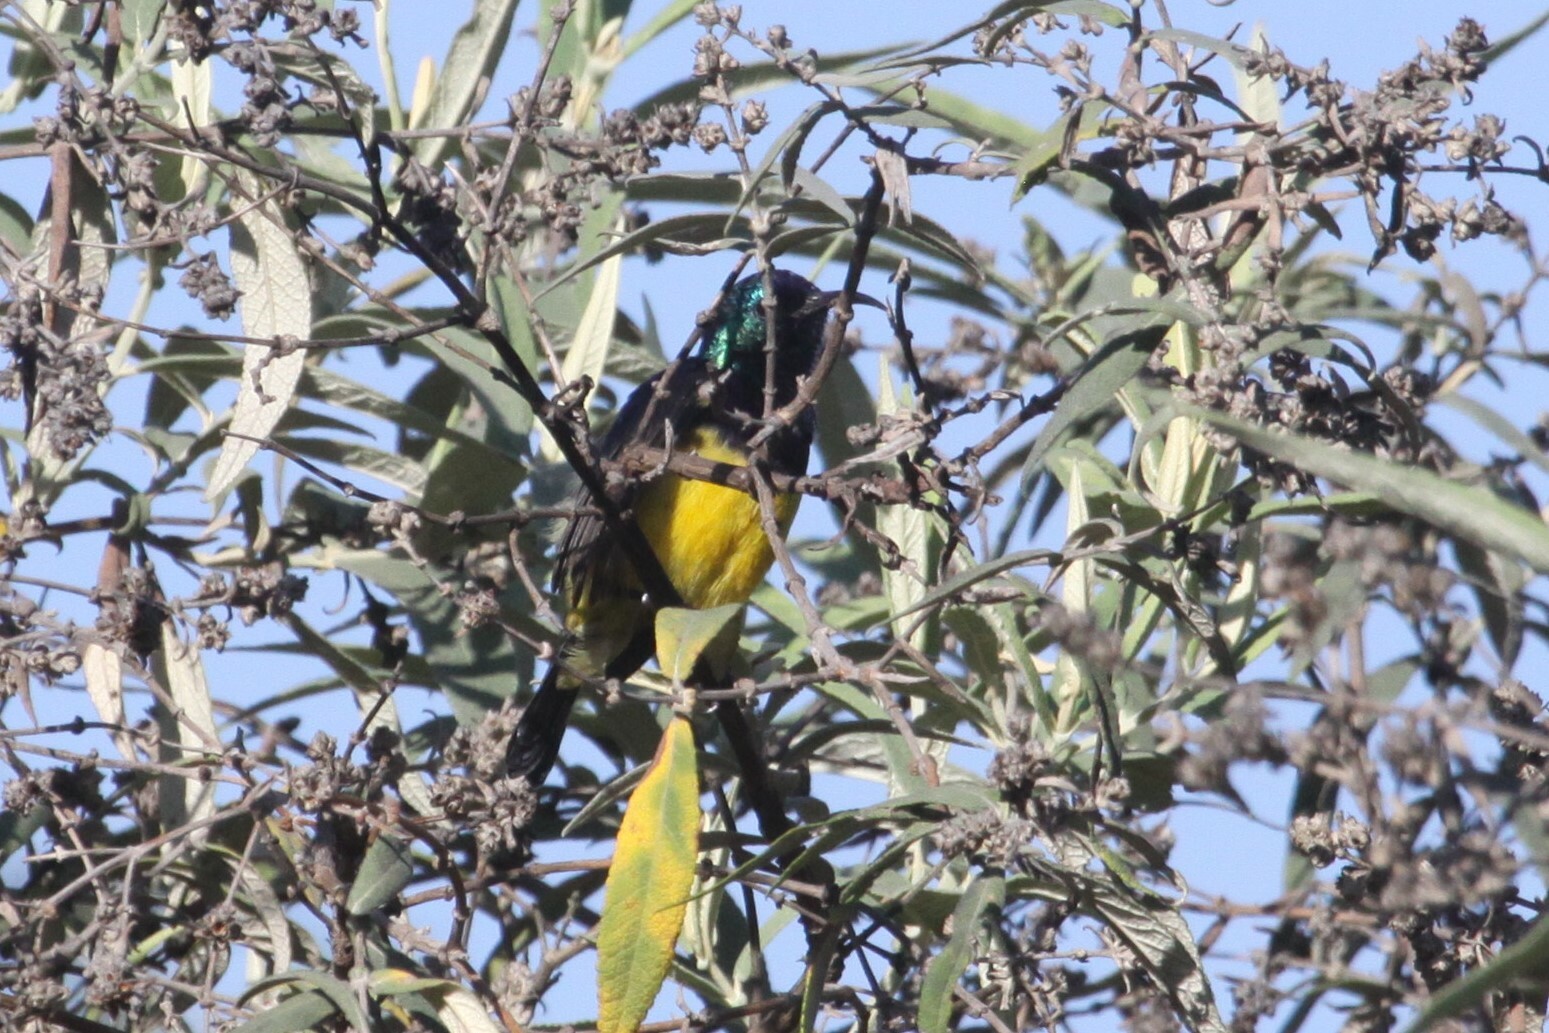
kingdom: Animalia
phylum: Chordata
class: Aves
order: Passeriformes
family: Nectariniidae
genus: Cinnyris
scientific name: Cinnyris venustus
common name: Variable sunbird
